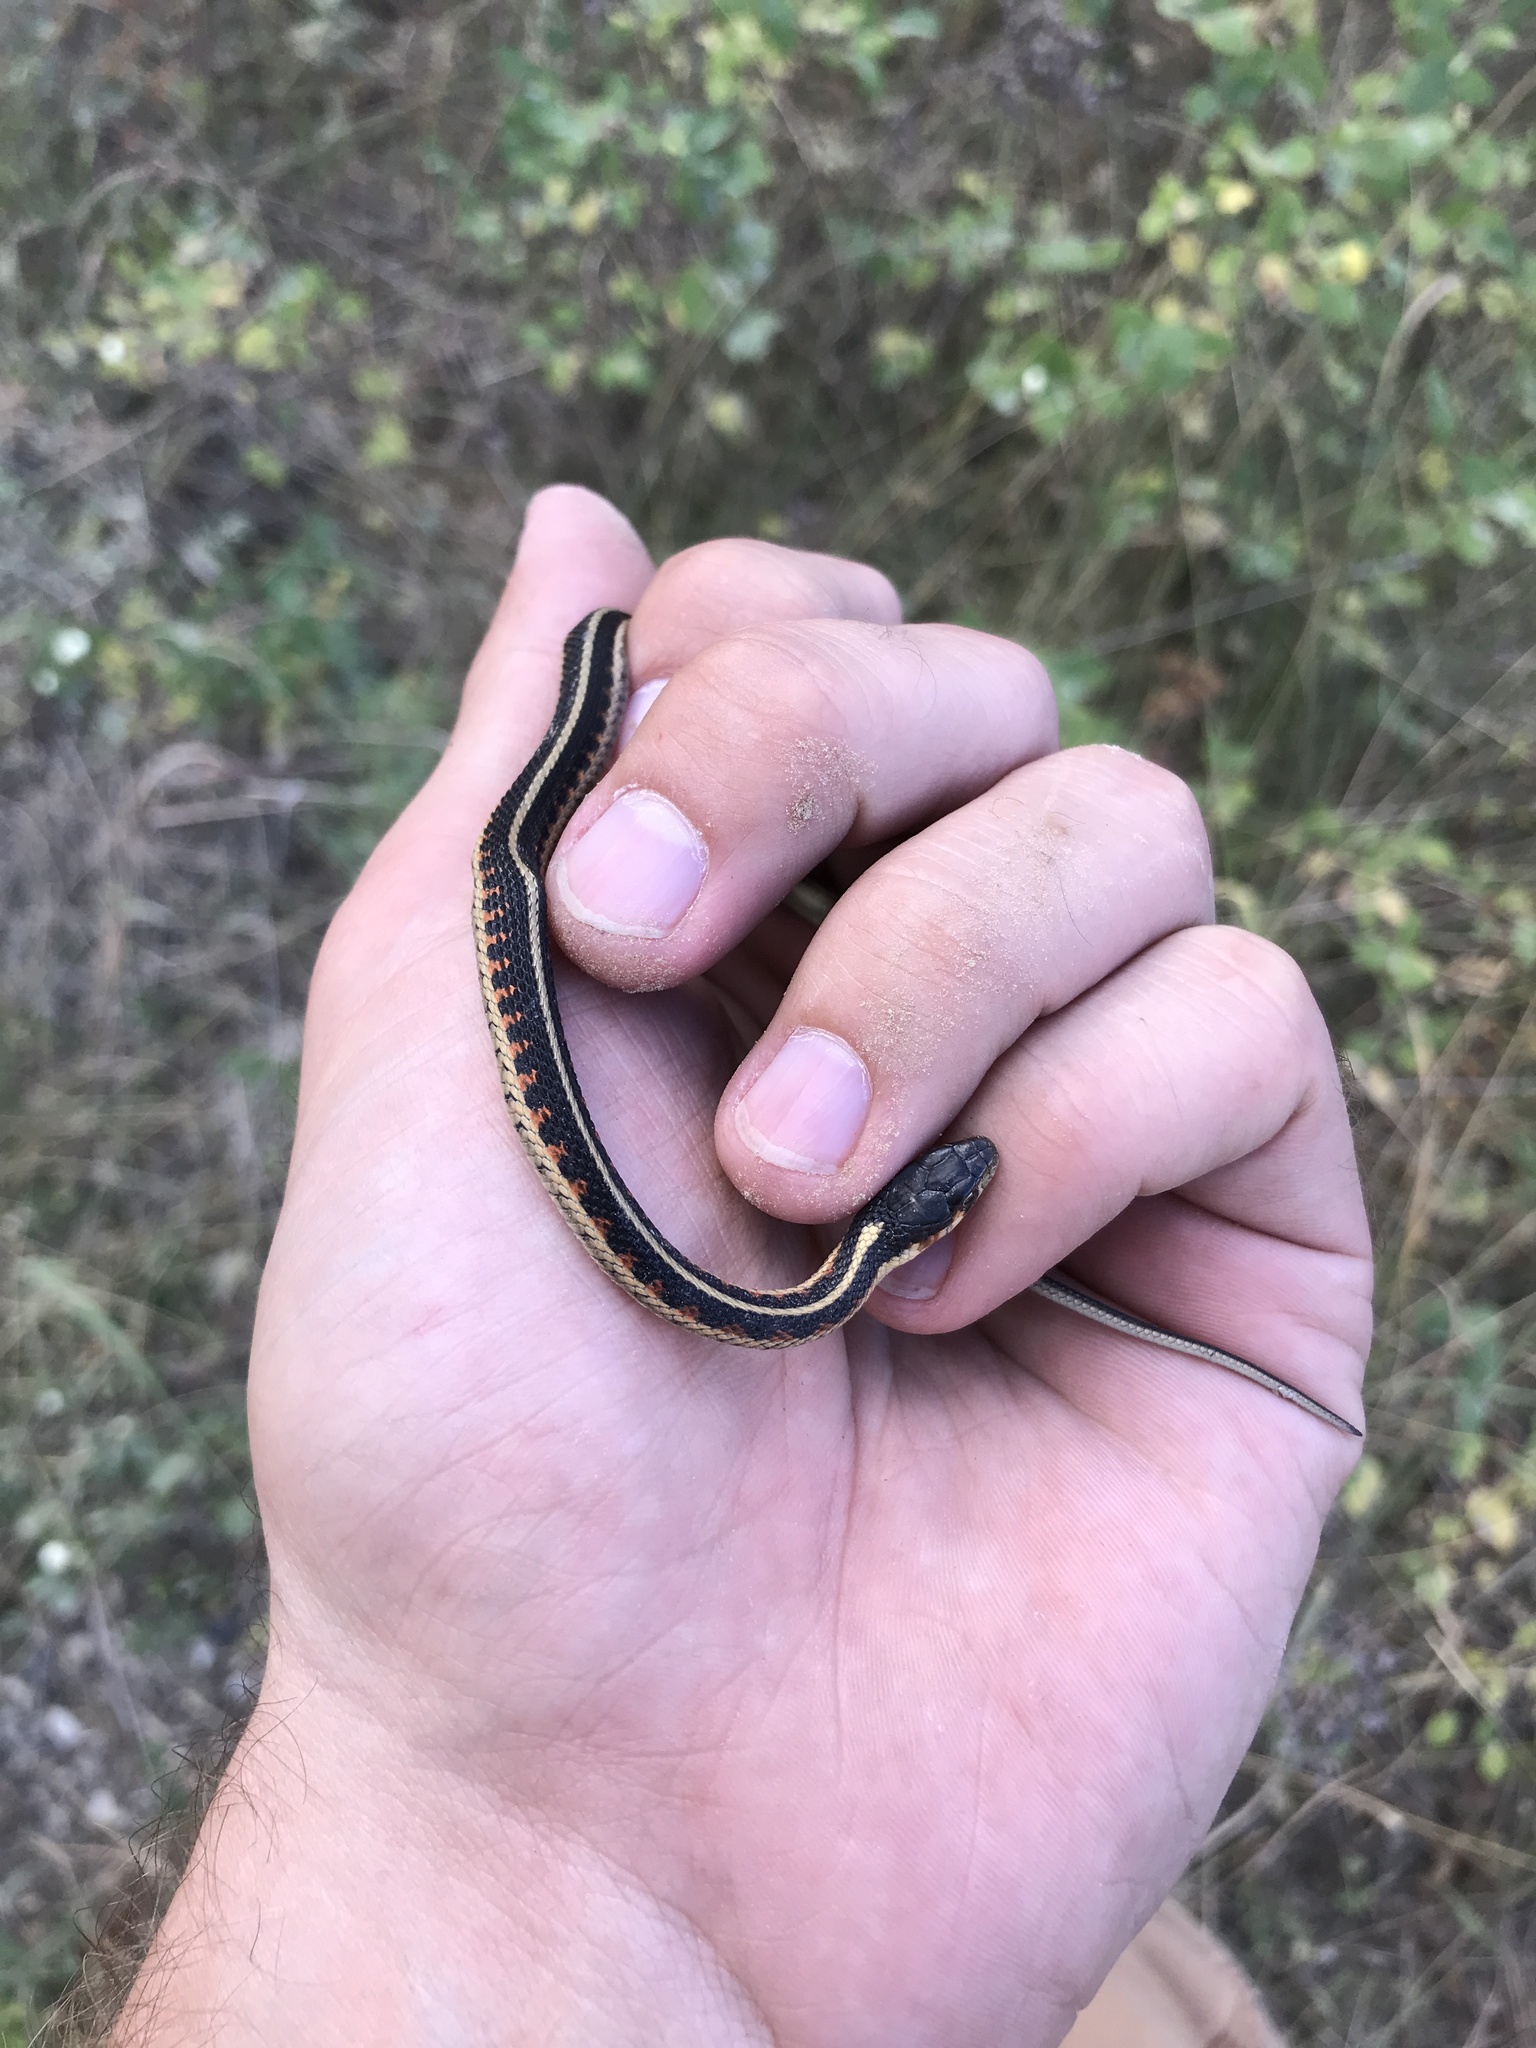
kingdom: Animalia
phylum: Chordata
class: Squamata
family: Colubridae
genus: Thamnophis
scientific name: Thamnophis sirtalis
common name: Common garter snake
